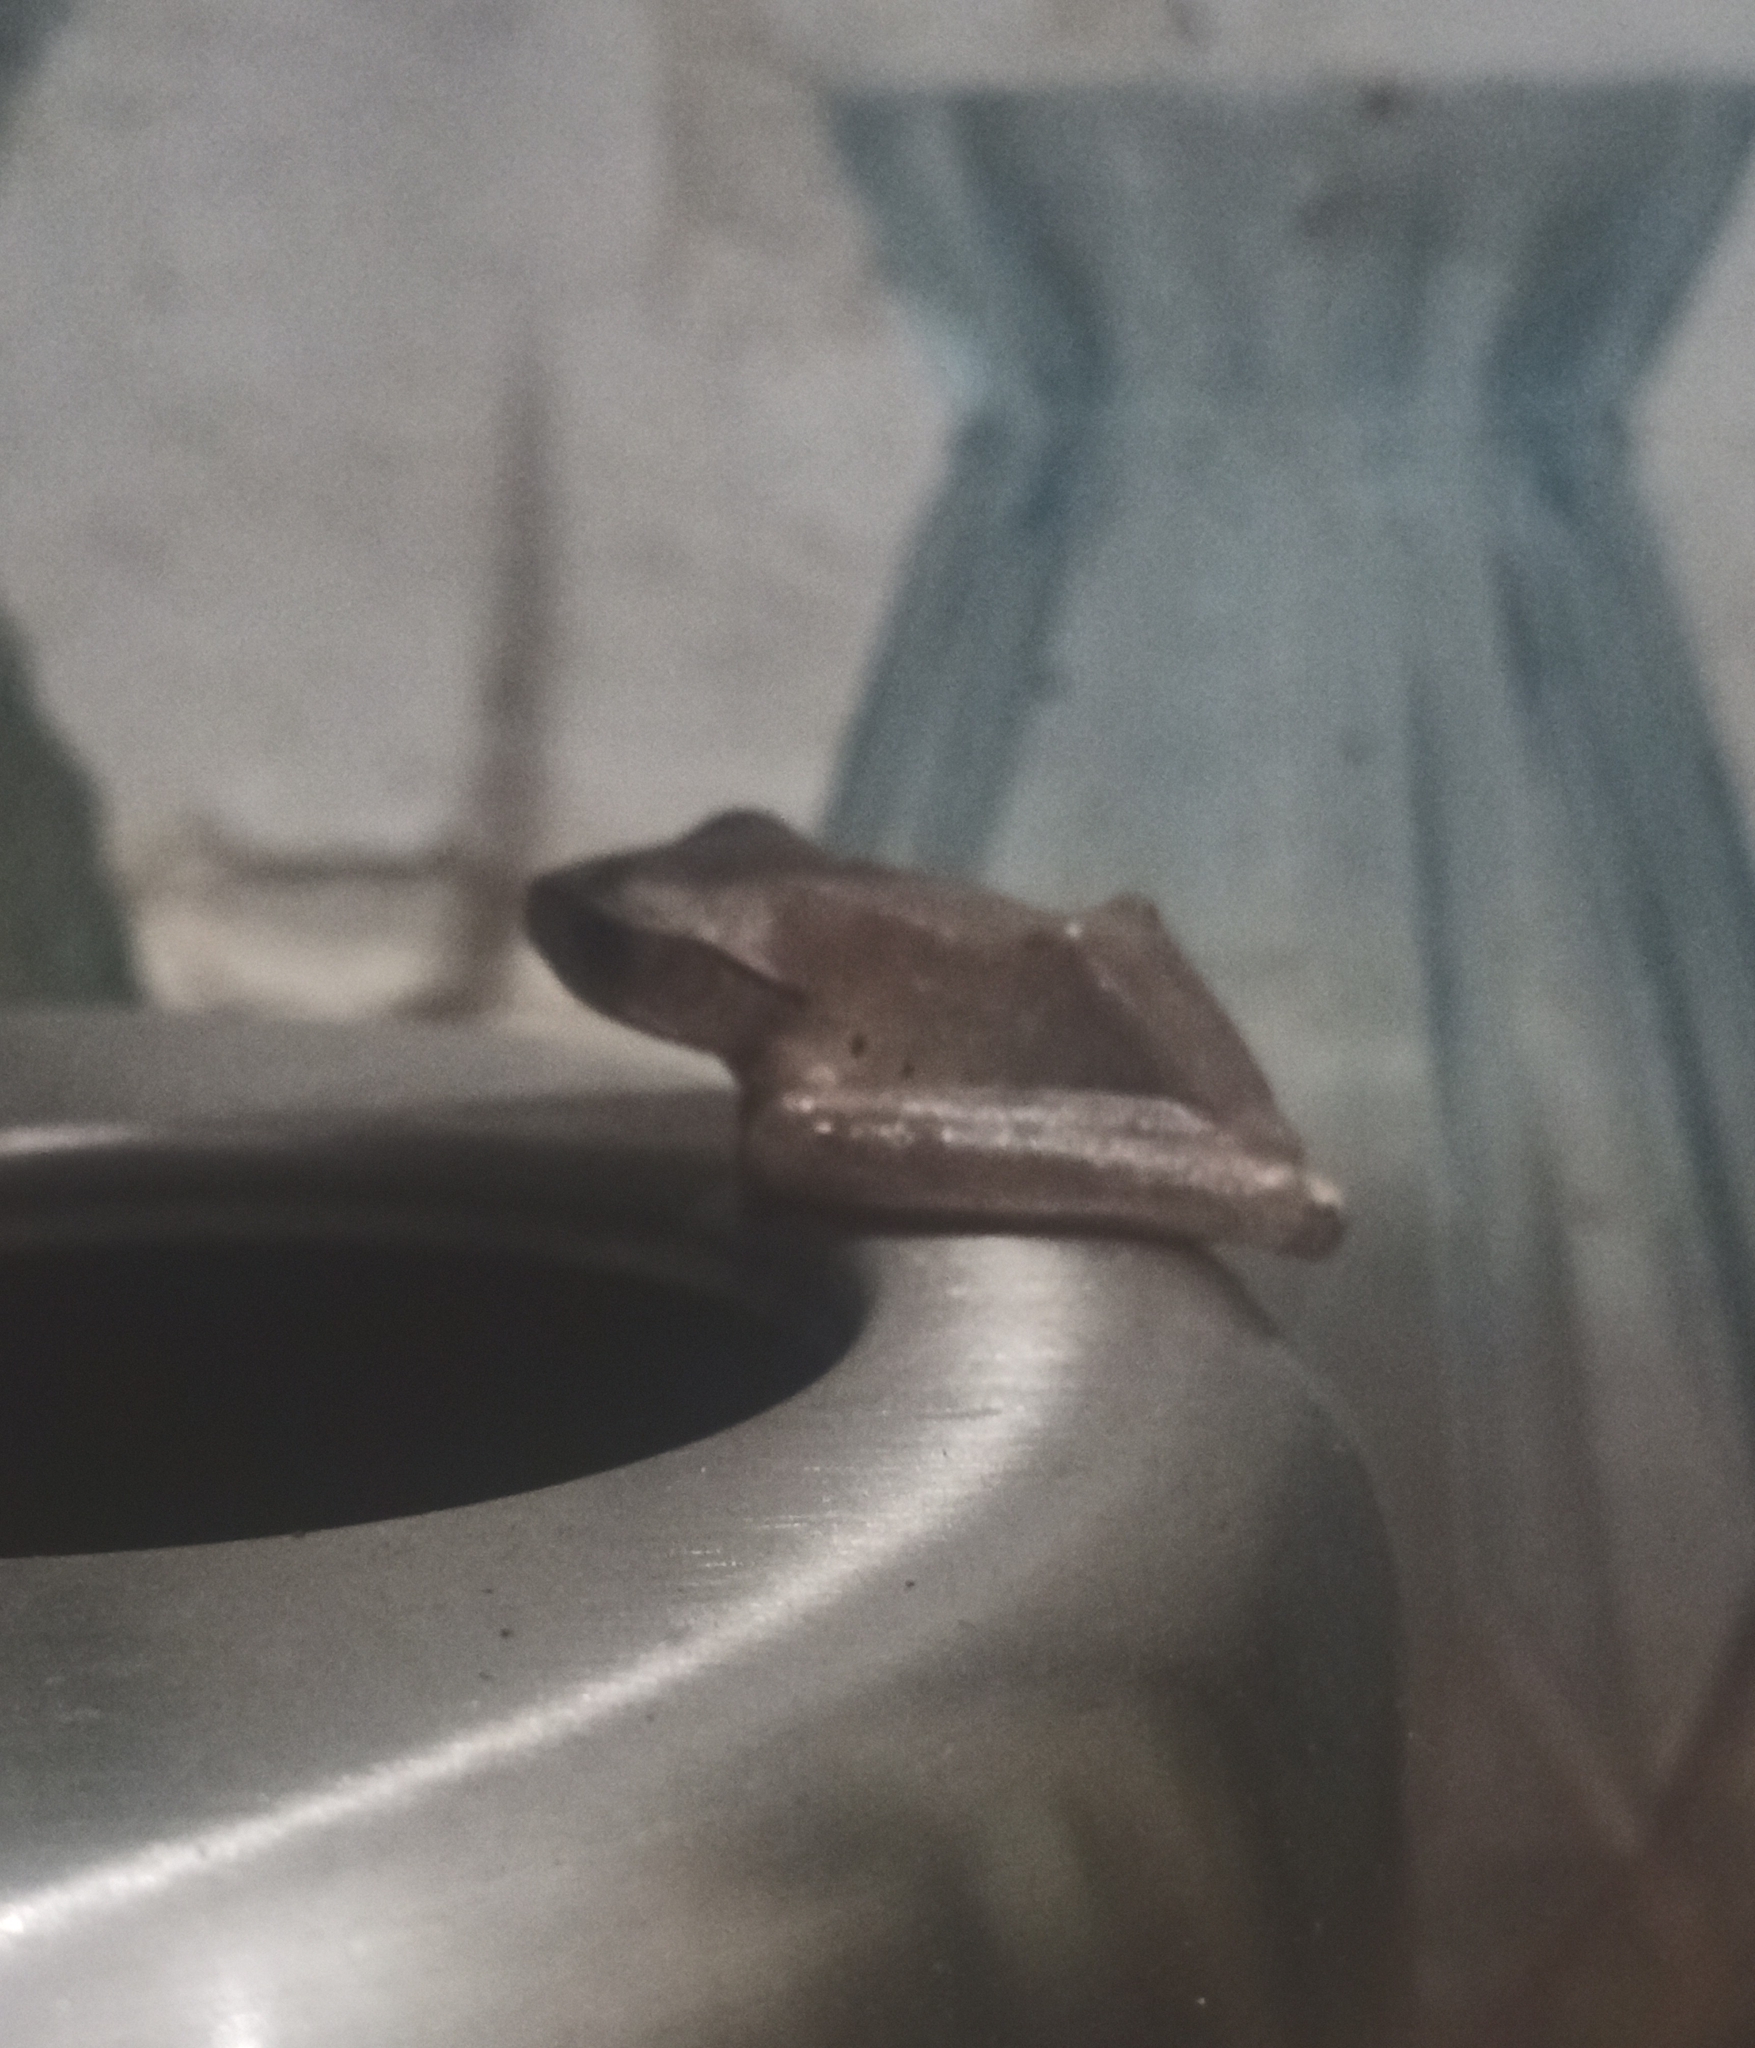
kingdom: Animalia
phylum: Chordata
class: Amphibia
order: Anura
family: Rhacophoridae
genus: Polypedates
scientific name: Polypedates megacephalus
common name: Hong kong whipping frog
